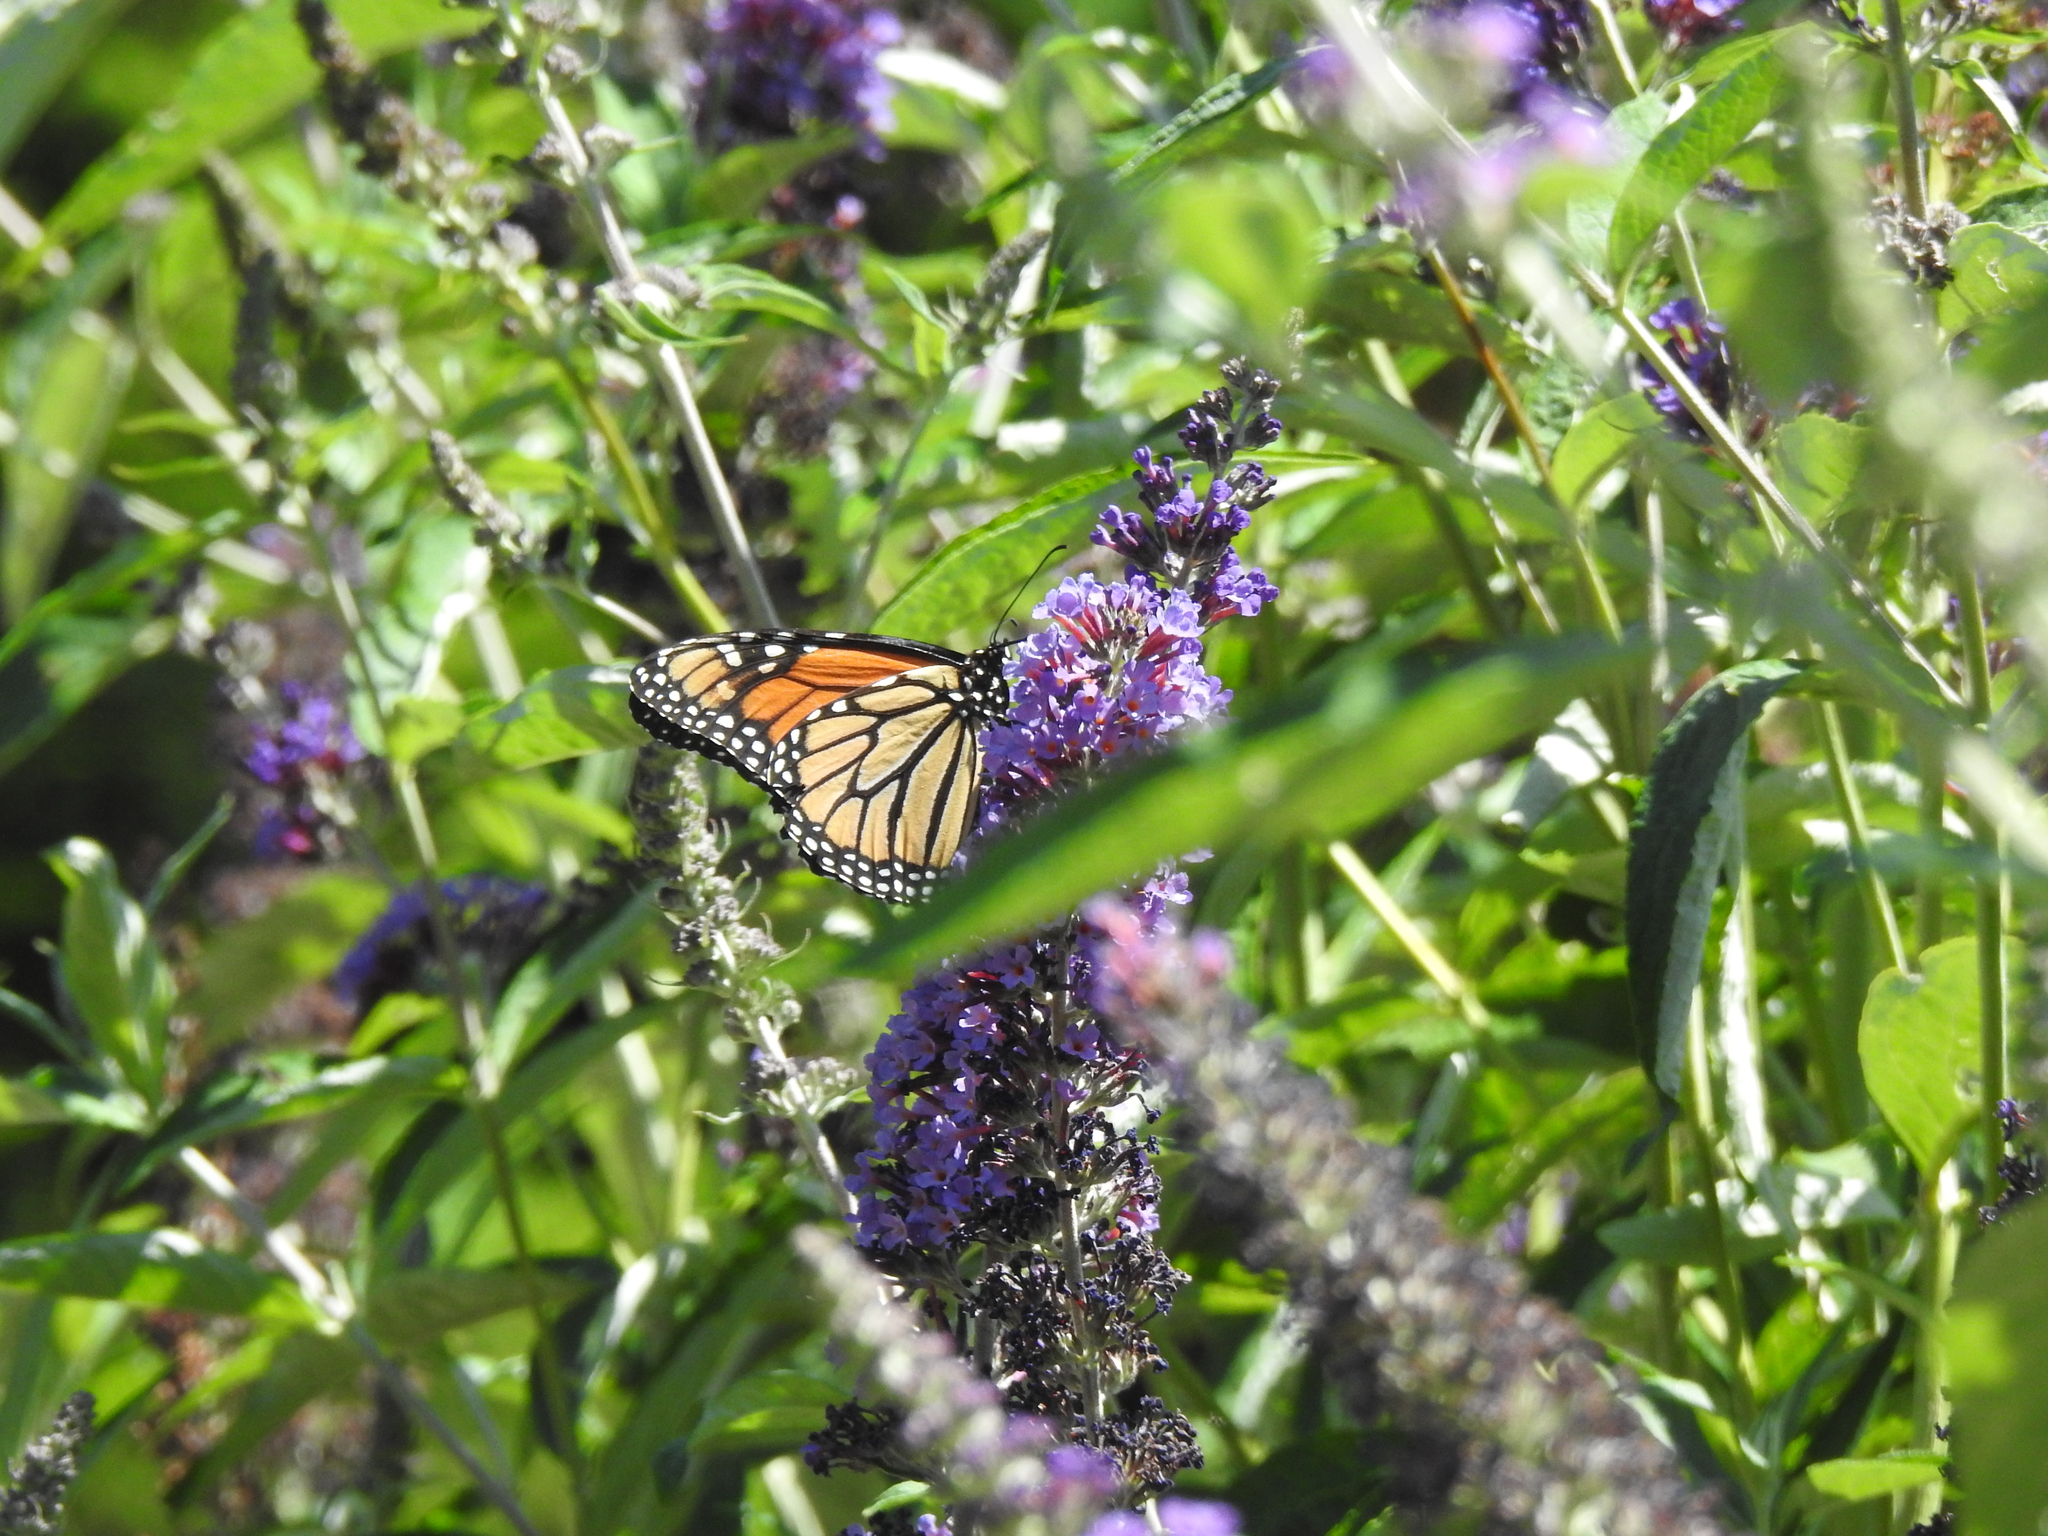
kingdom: Animalia
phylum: Arthropoda
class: Insecta
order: Lepidoptera
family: Nymphalidae
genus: Danaus
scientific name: Danaus plexippus
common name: Monarch
